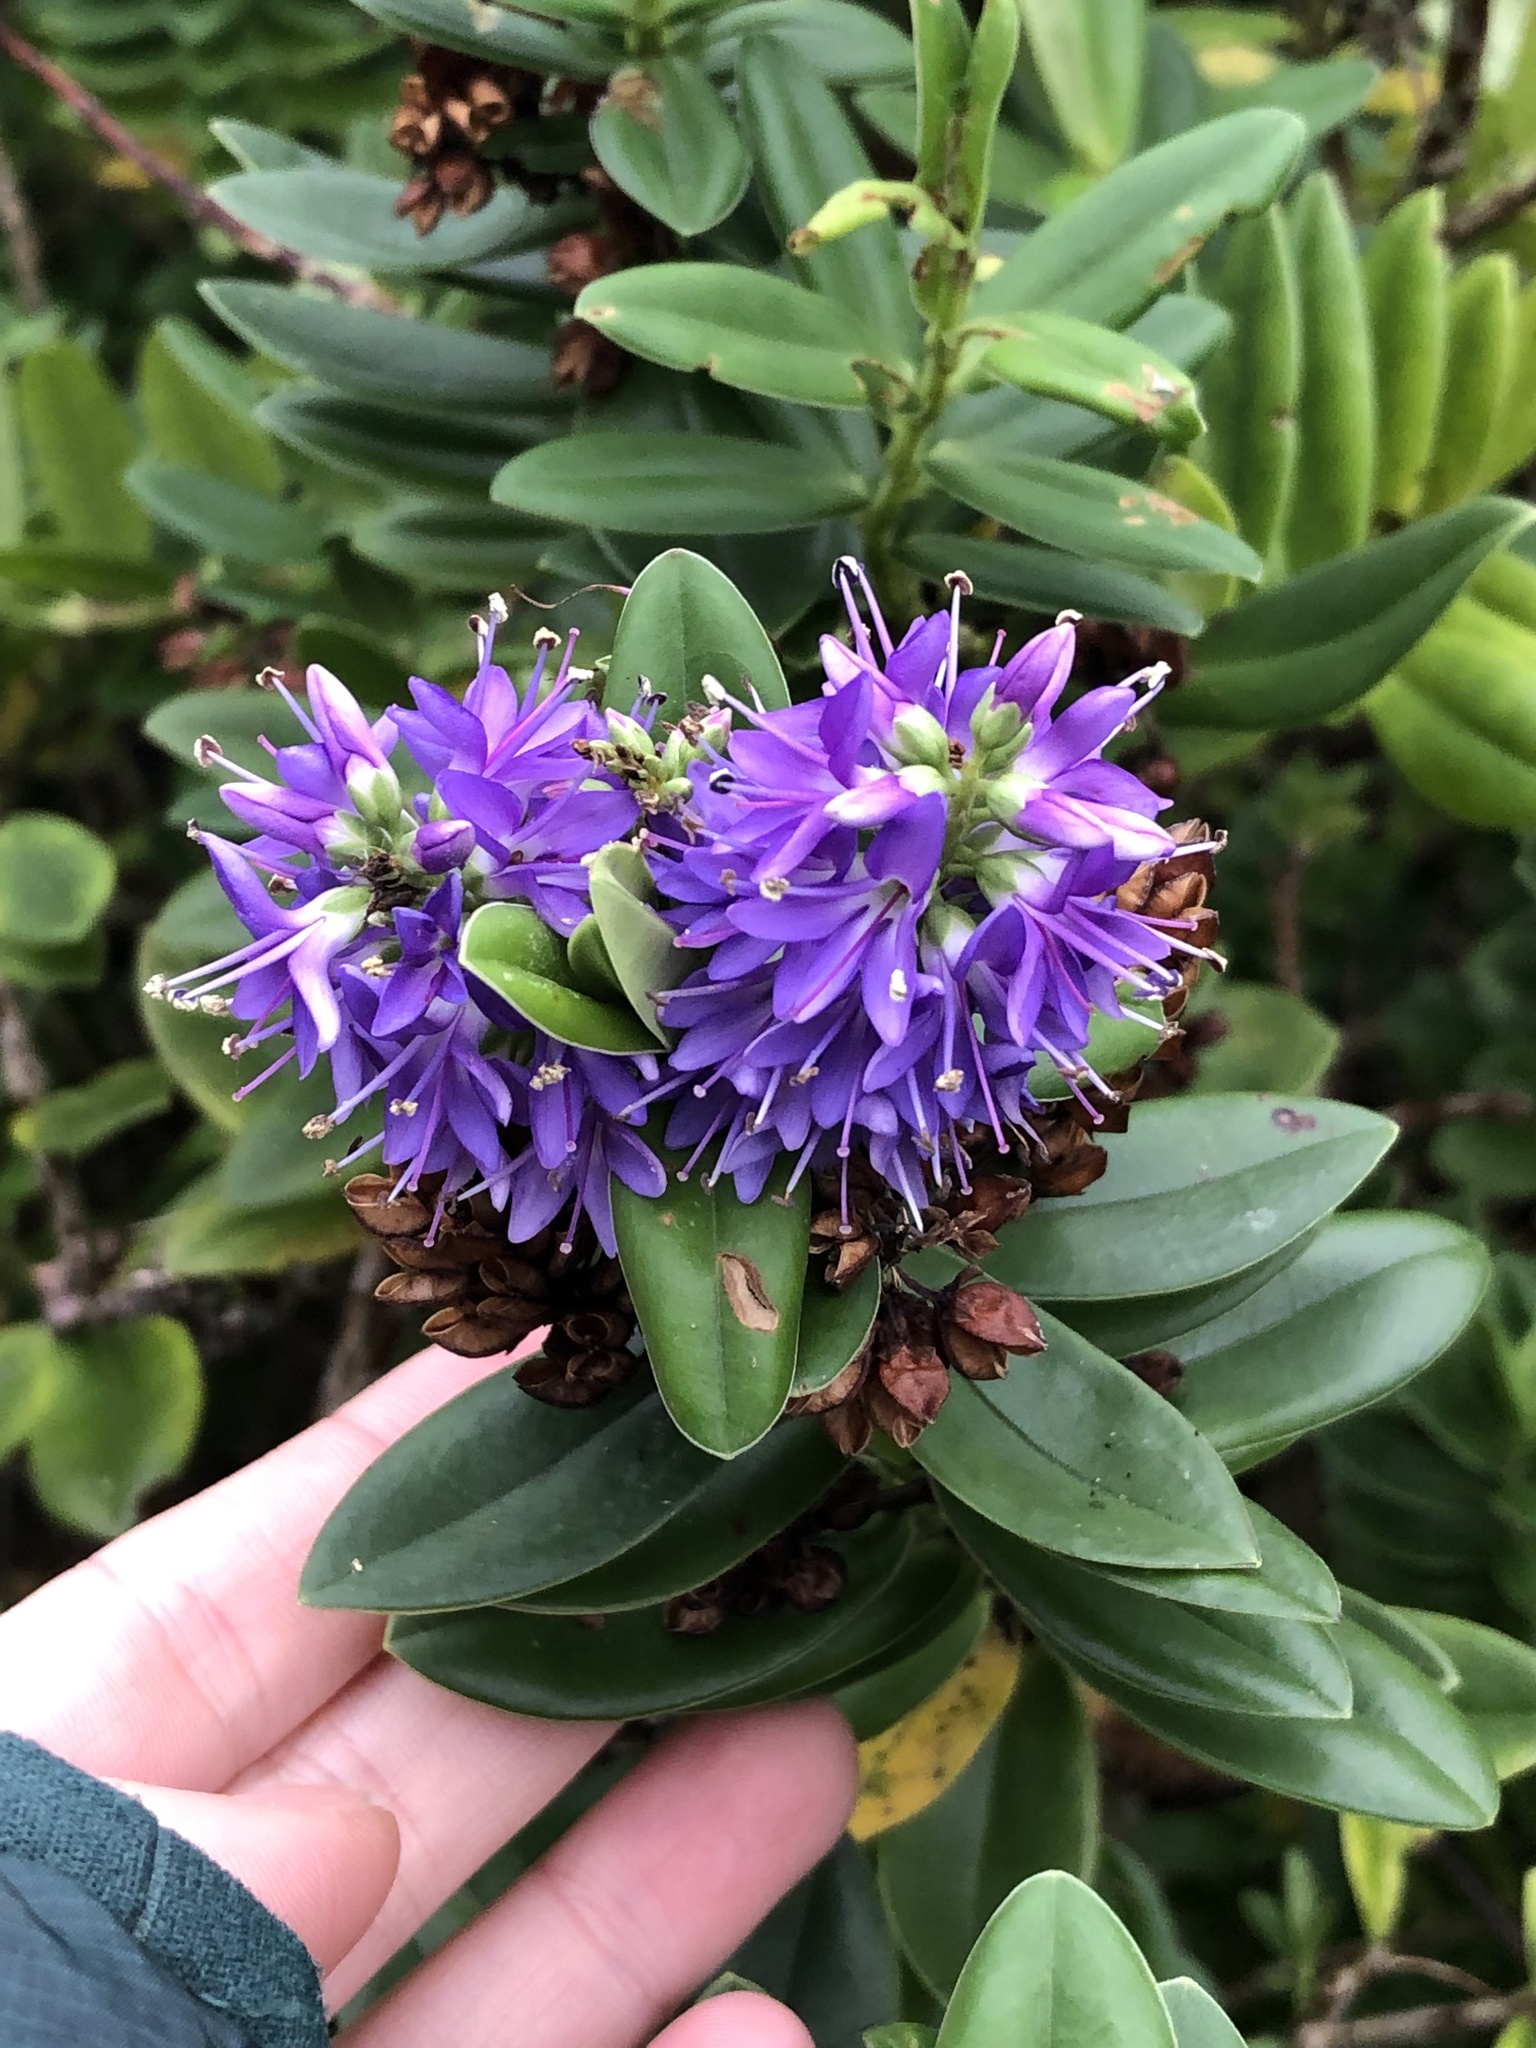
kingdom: Plantae
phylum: Tracheophyta
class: Magnoliopsida
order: Lamiales
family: Plantaginaceae
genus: Veronica
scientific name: Veronica franciscana
